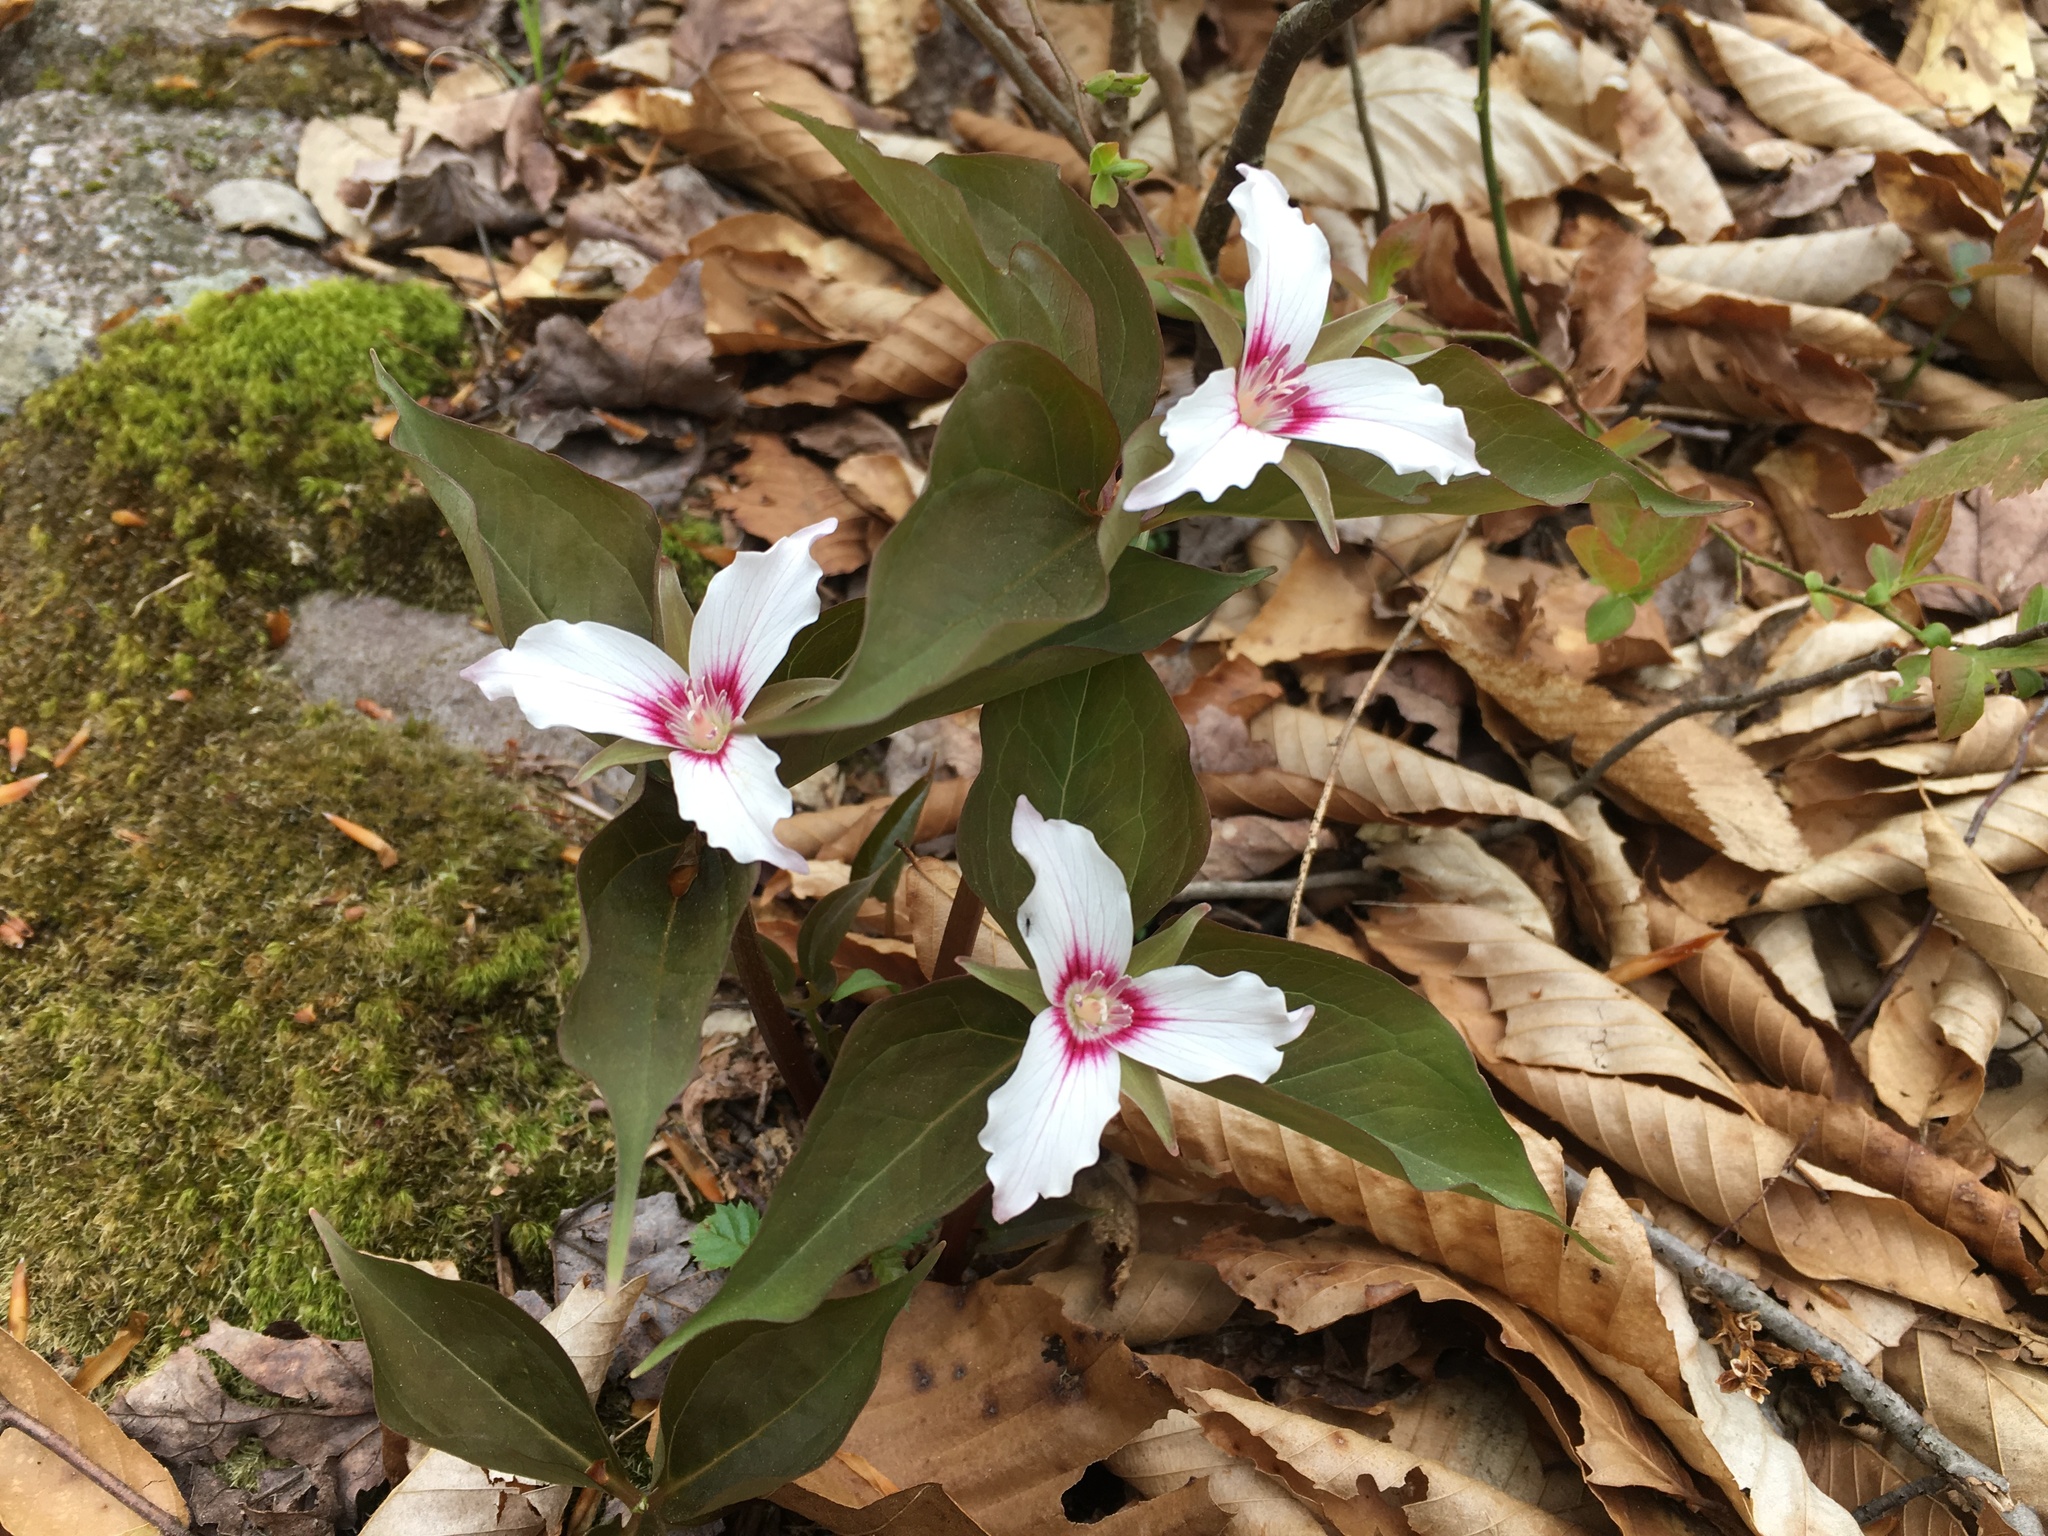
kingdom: Plantae
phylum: Tracheophyta
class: Liliopsida
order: Liliales
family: Melanthiaceae
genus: Trillium
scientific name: Trillium undulatum
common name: Paint trillium
